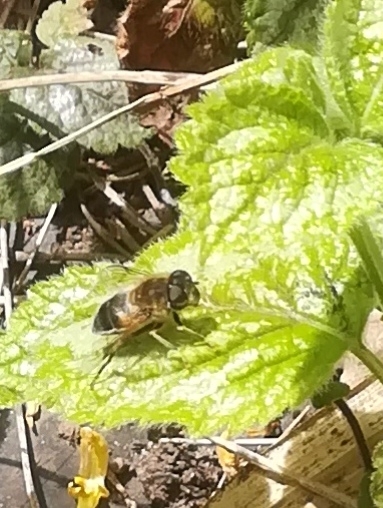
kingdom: Animalia
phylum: Arthropoda
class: Insecta
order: Diptera
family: Syrphidae
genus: Eristalis
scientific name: Eristalis pertinax
